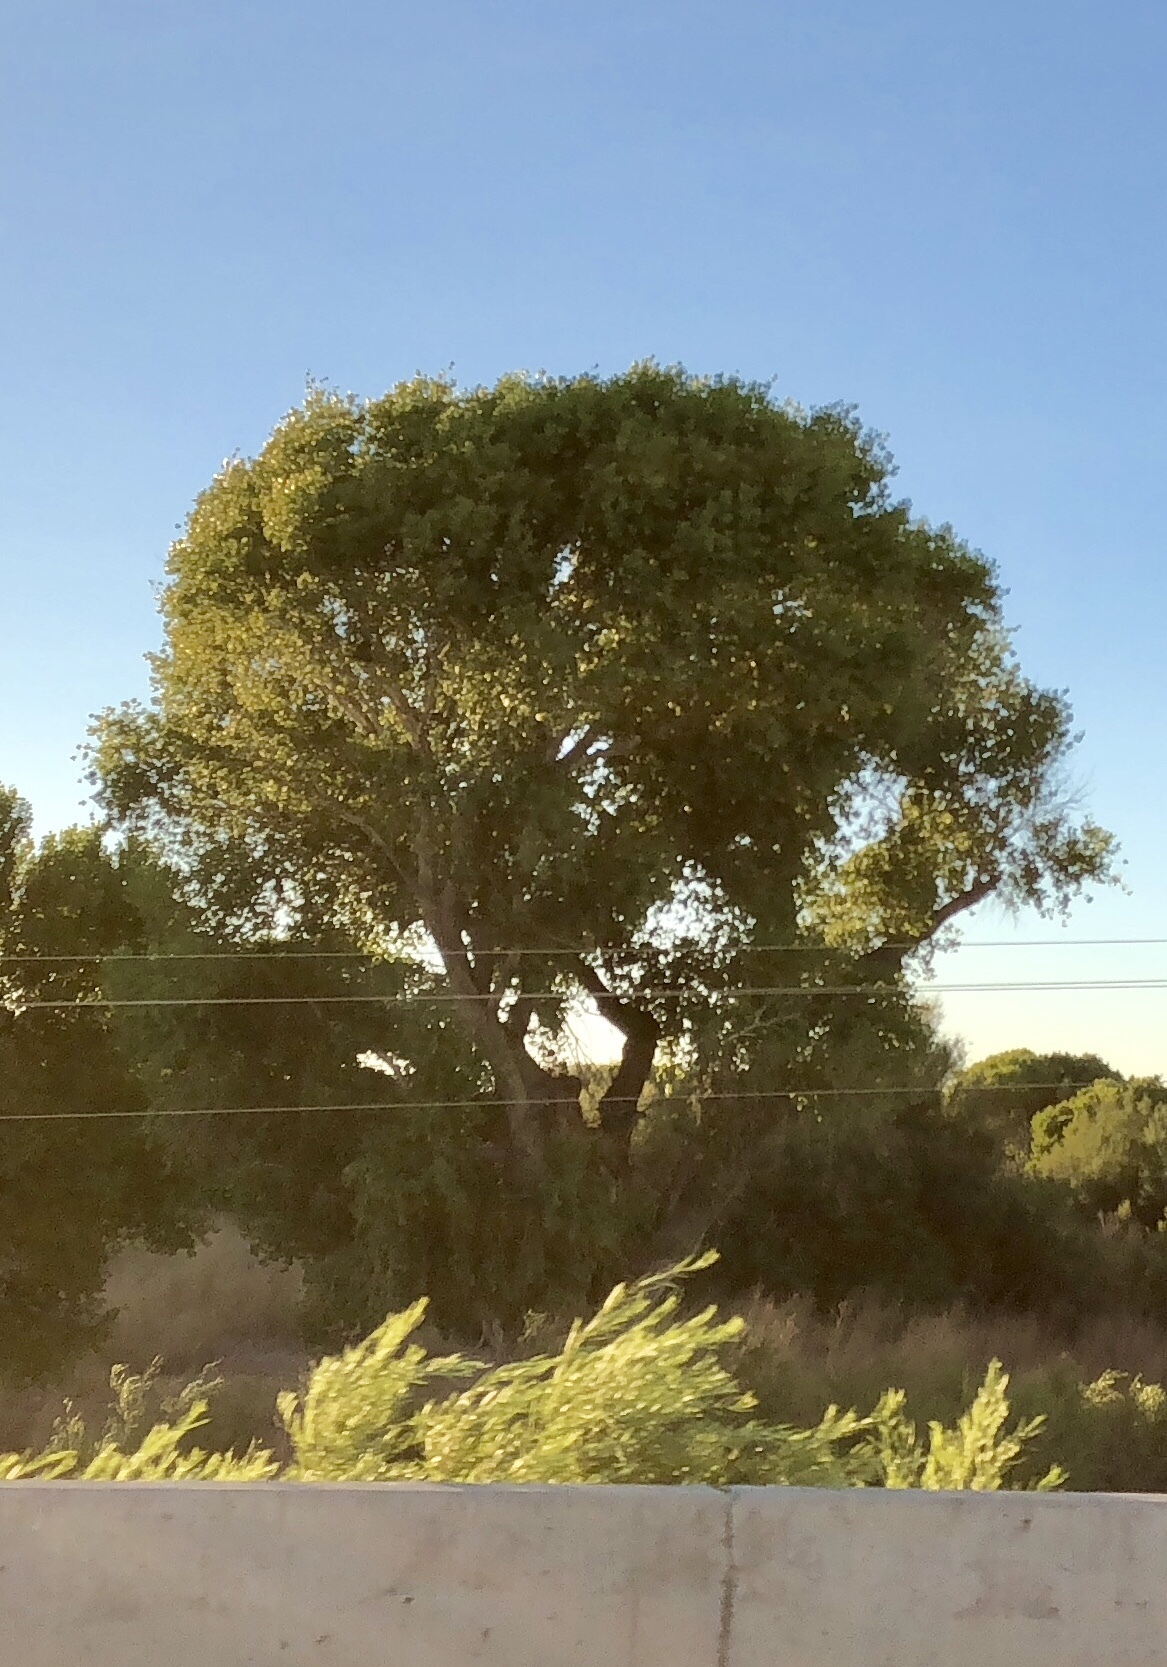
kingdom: Plantae
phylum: Tracheophyta
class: Magnoliopsida
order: Malpighiales
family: Salicaceae
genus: Populus
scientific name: Populus fremontii
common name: Fremont's cottonwood
